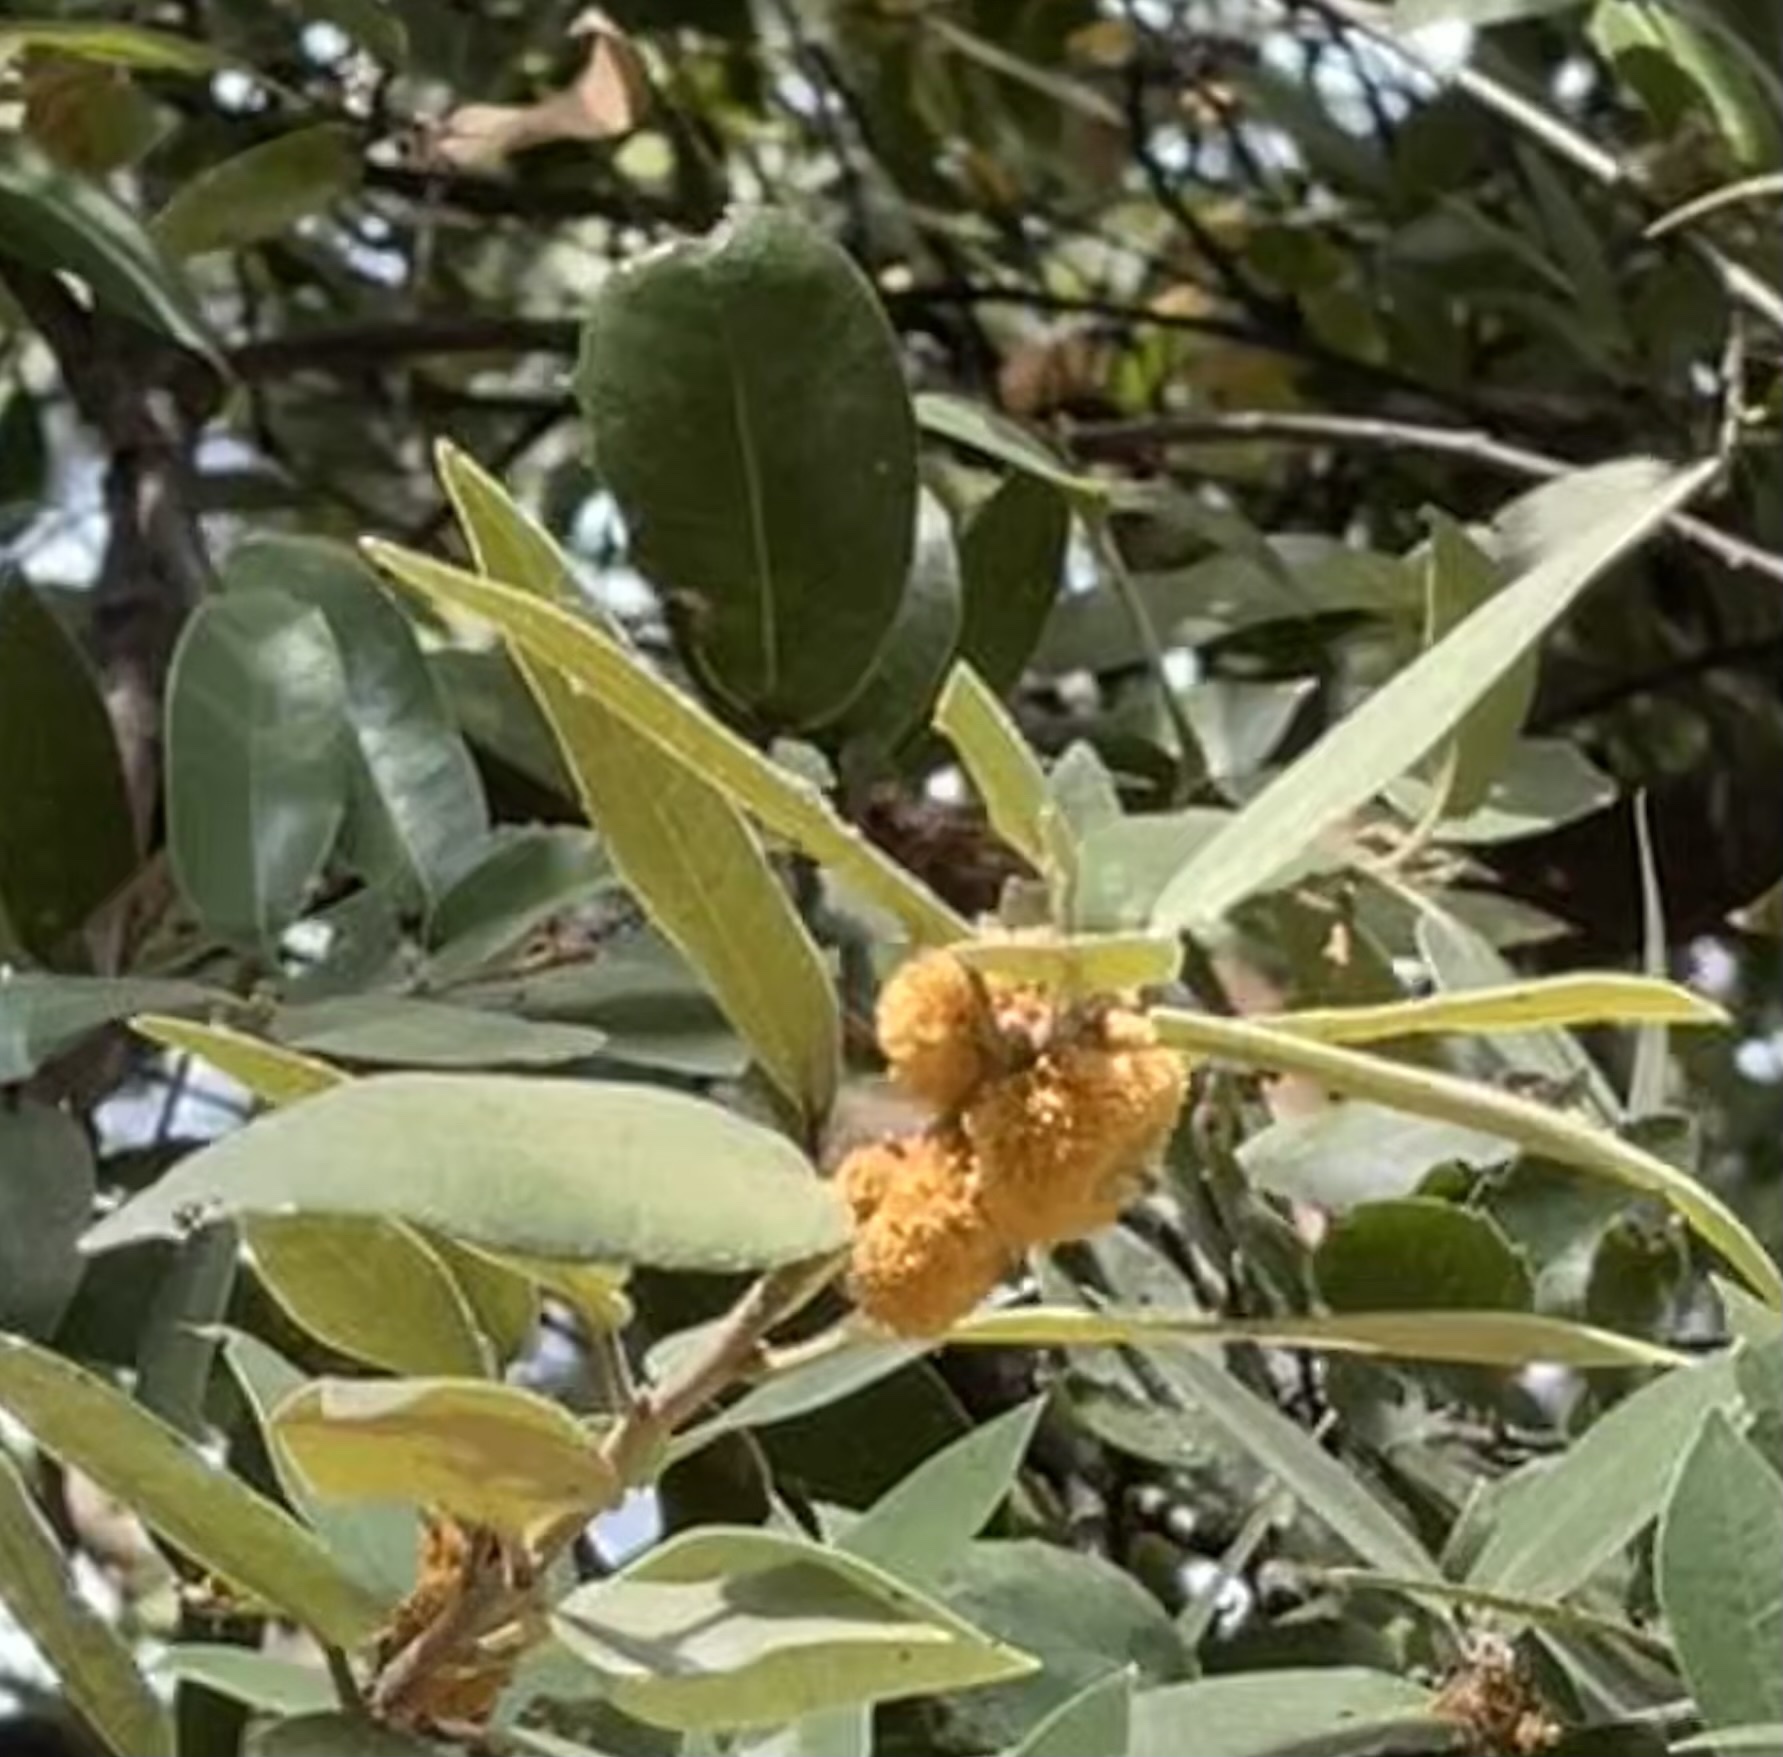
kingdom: Plantae
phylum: Tracheophyta
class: Magnoliopsida
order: Fagales
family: Fagaceae
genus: Quercus
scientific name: Quercus chrysolepis
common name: Canyon live oak
